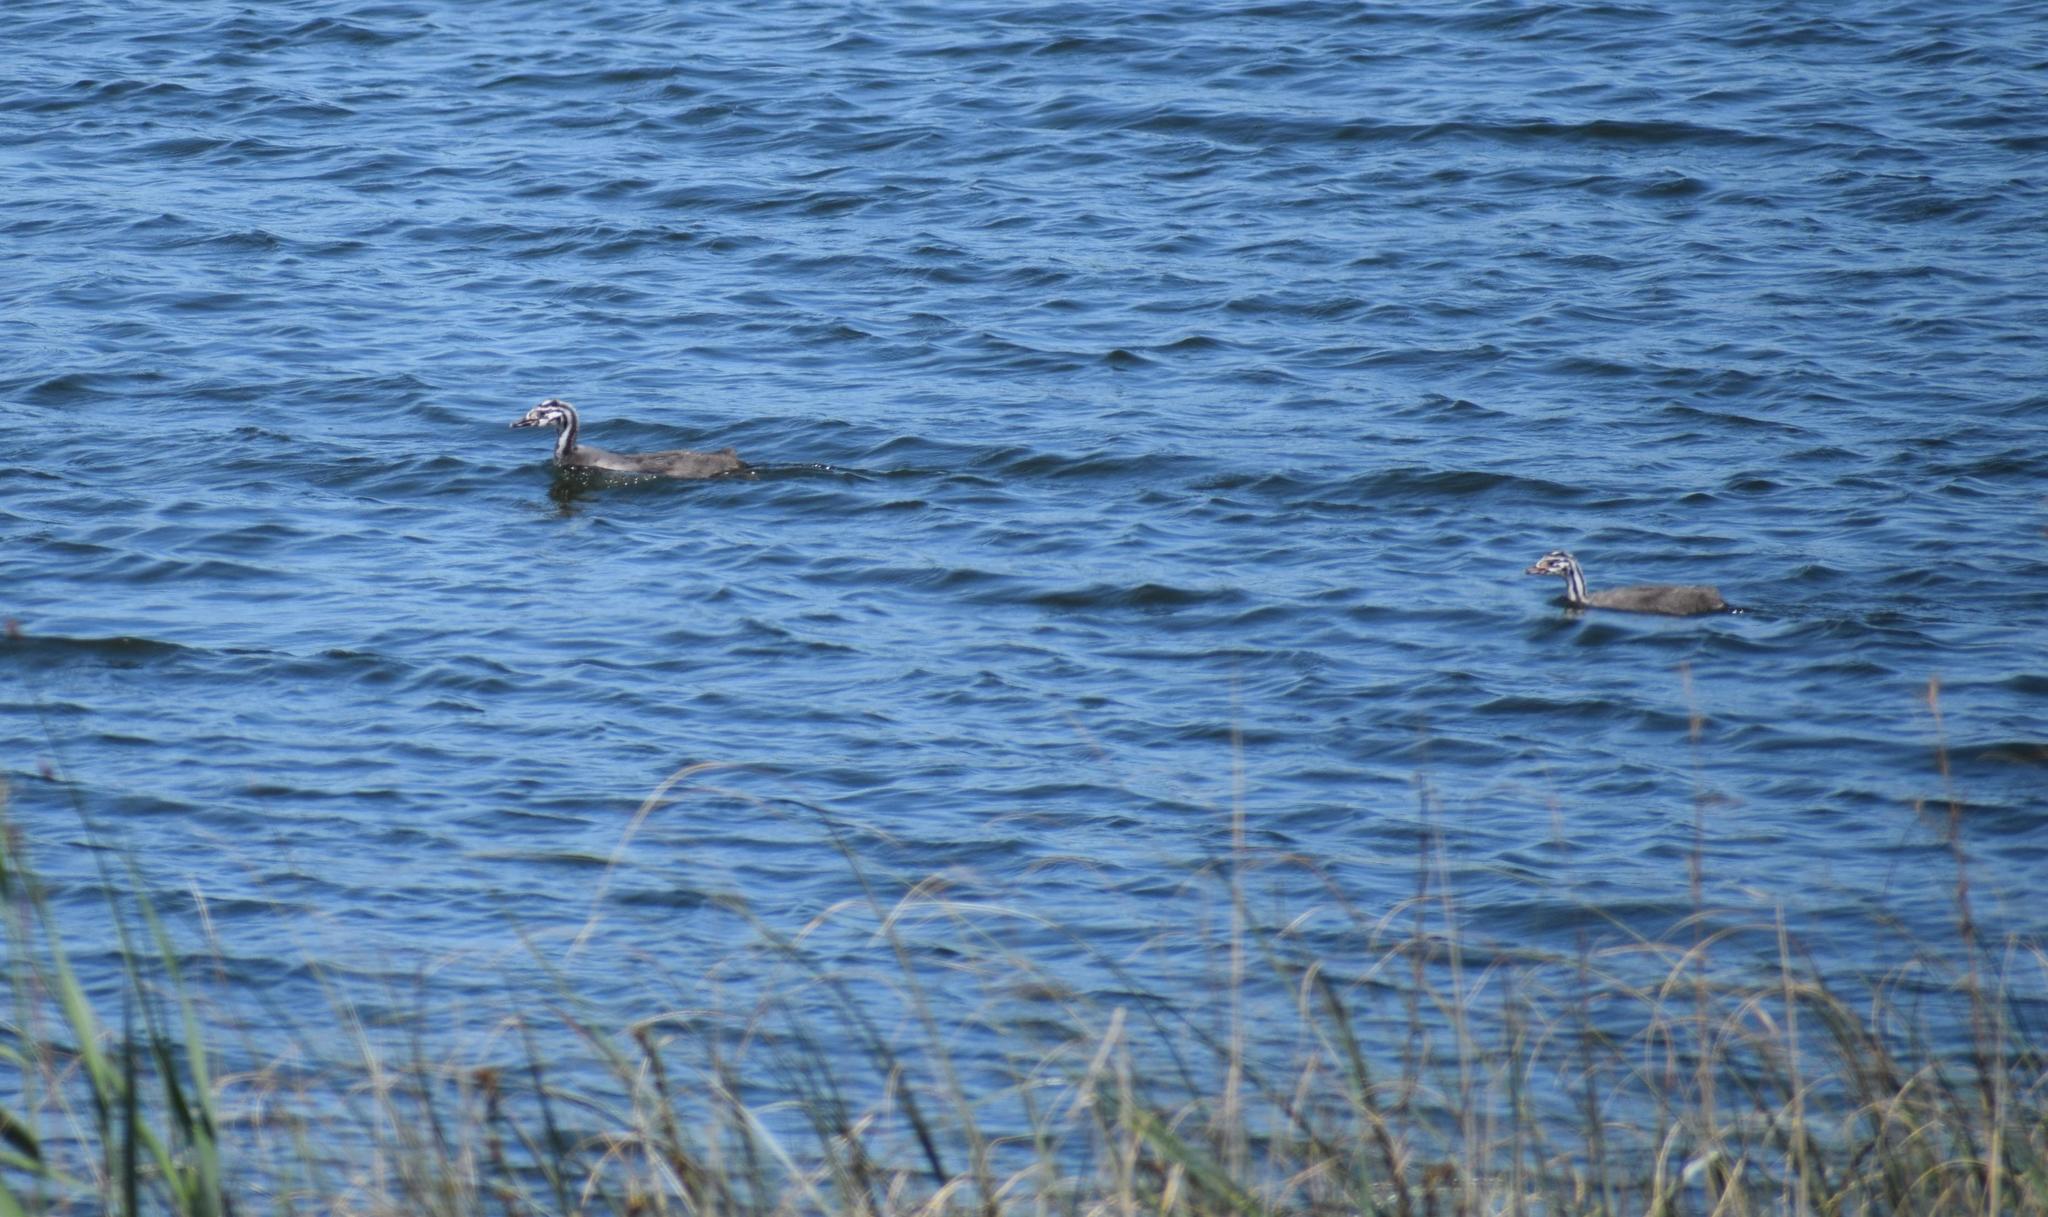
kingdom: Animalia
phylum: Chordata
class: Aves
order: Podicipediformes
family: Podicipedidae
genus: Podiceps
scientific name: Podiceps cristatus
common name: Great crested grebe
